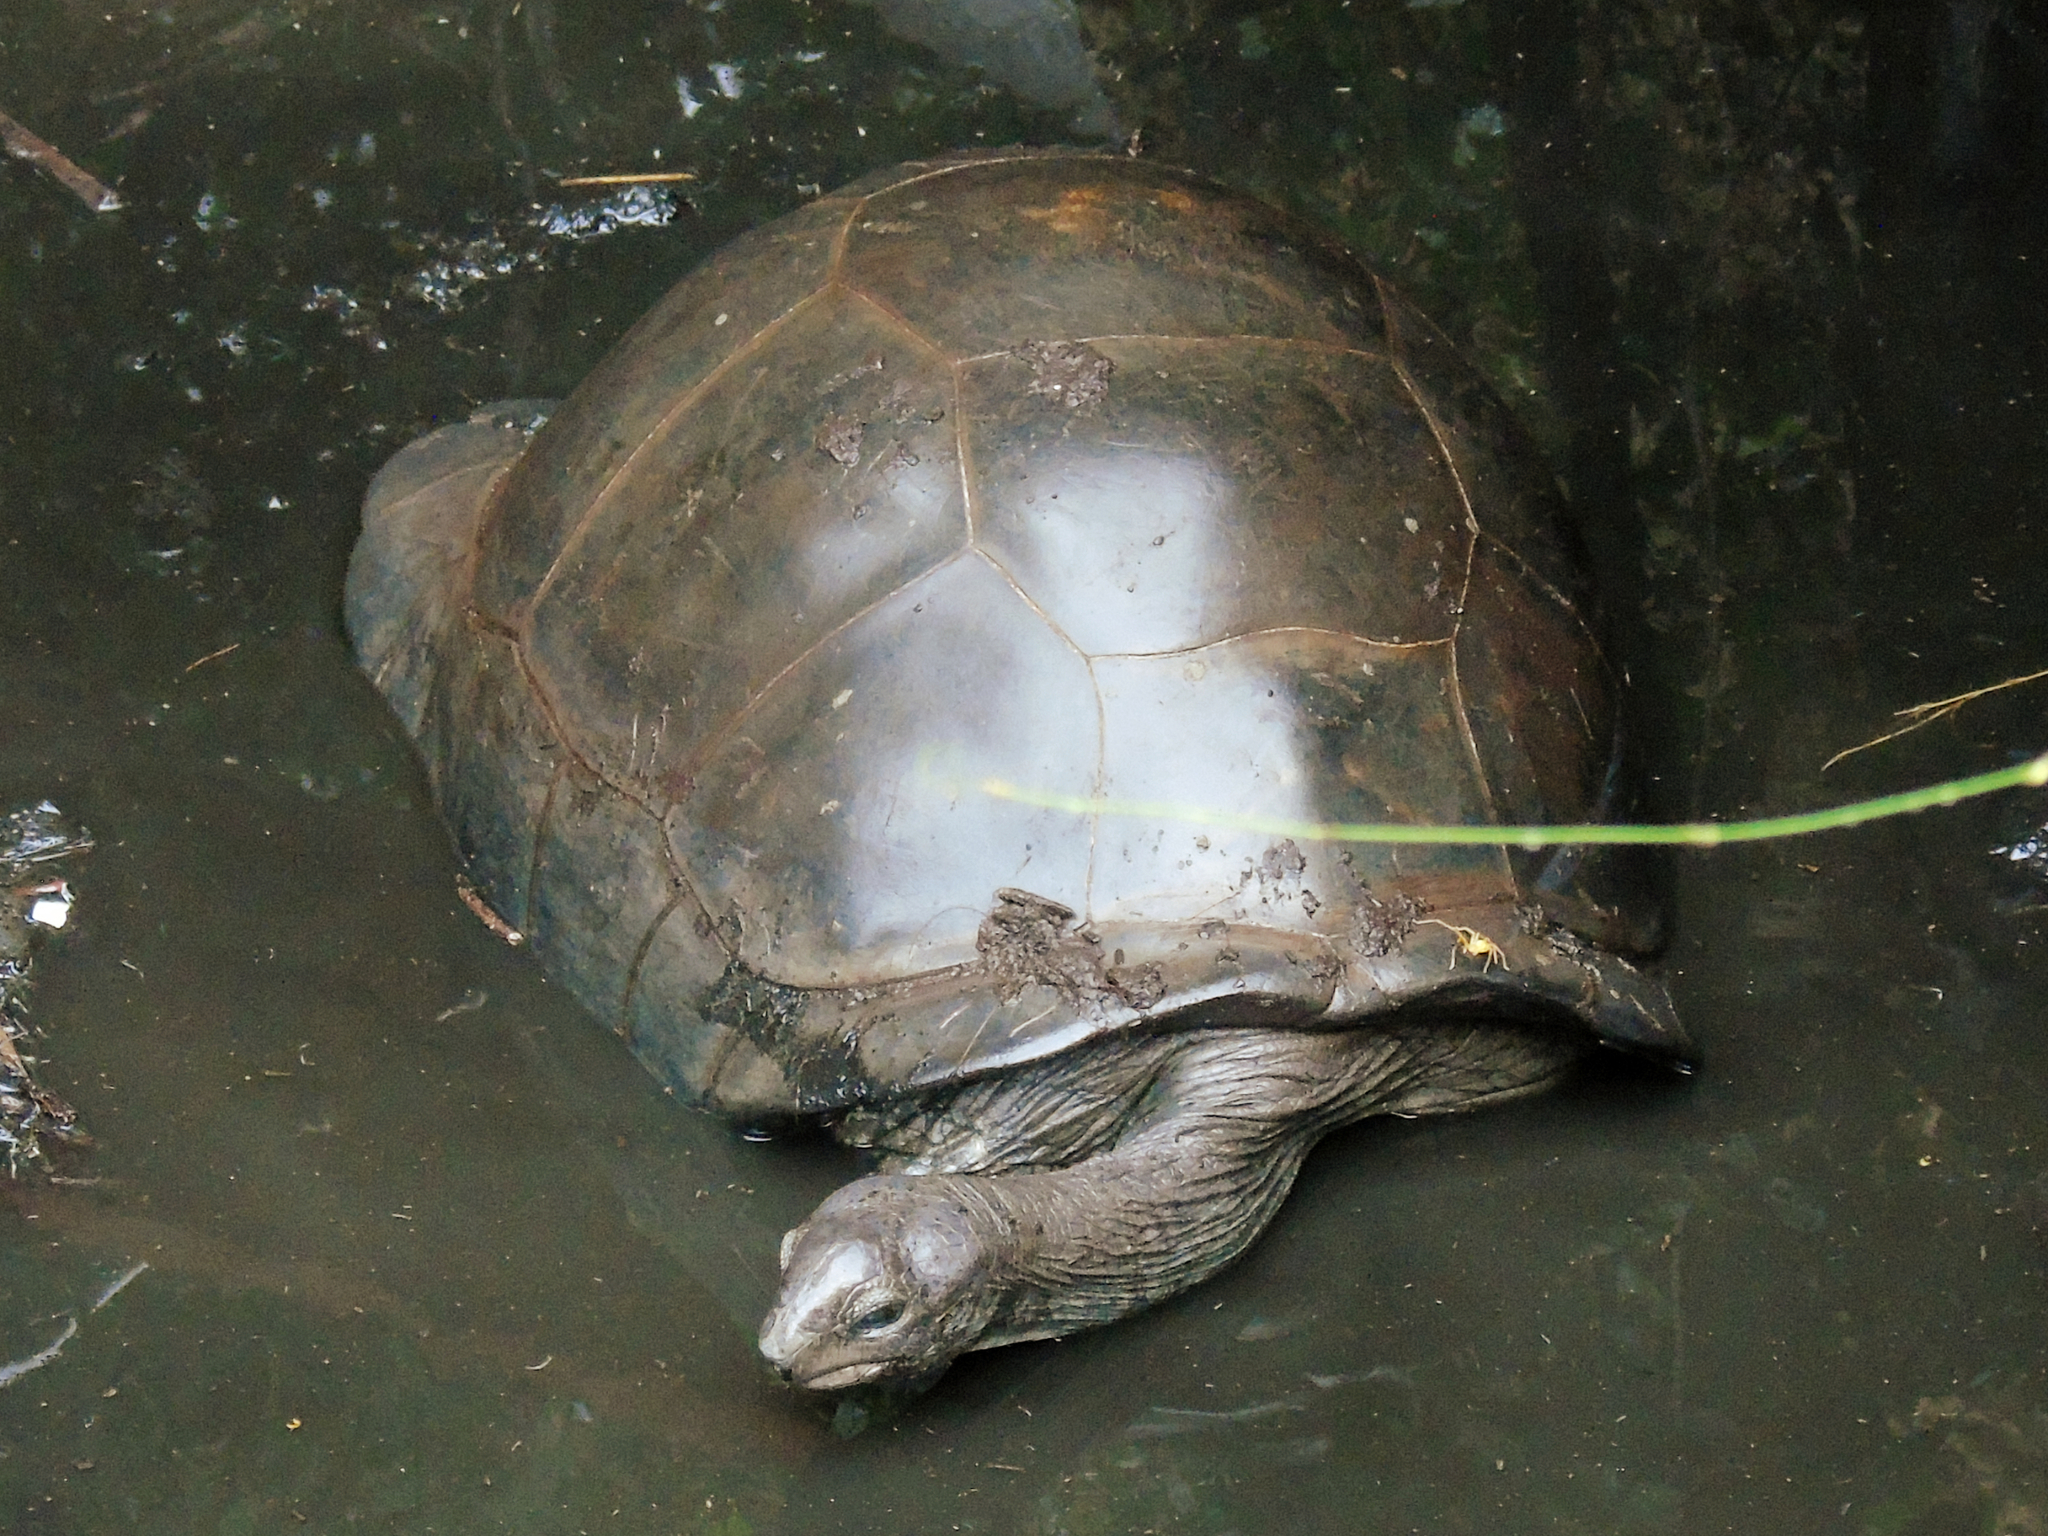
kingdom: Animalia
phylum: Chordata
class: Testudines
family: Testudinidae
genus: Aldabrachelys
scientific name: Aldabrachelys gigantea
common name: Aldabra giant tortoise
